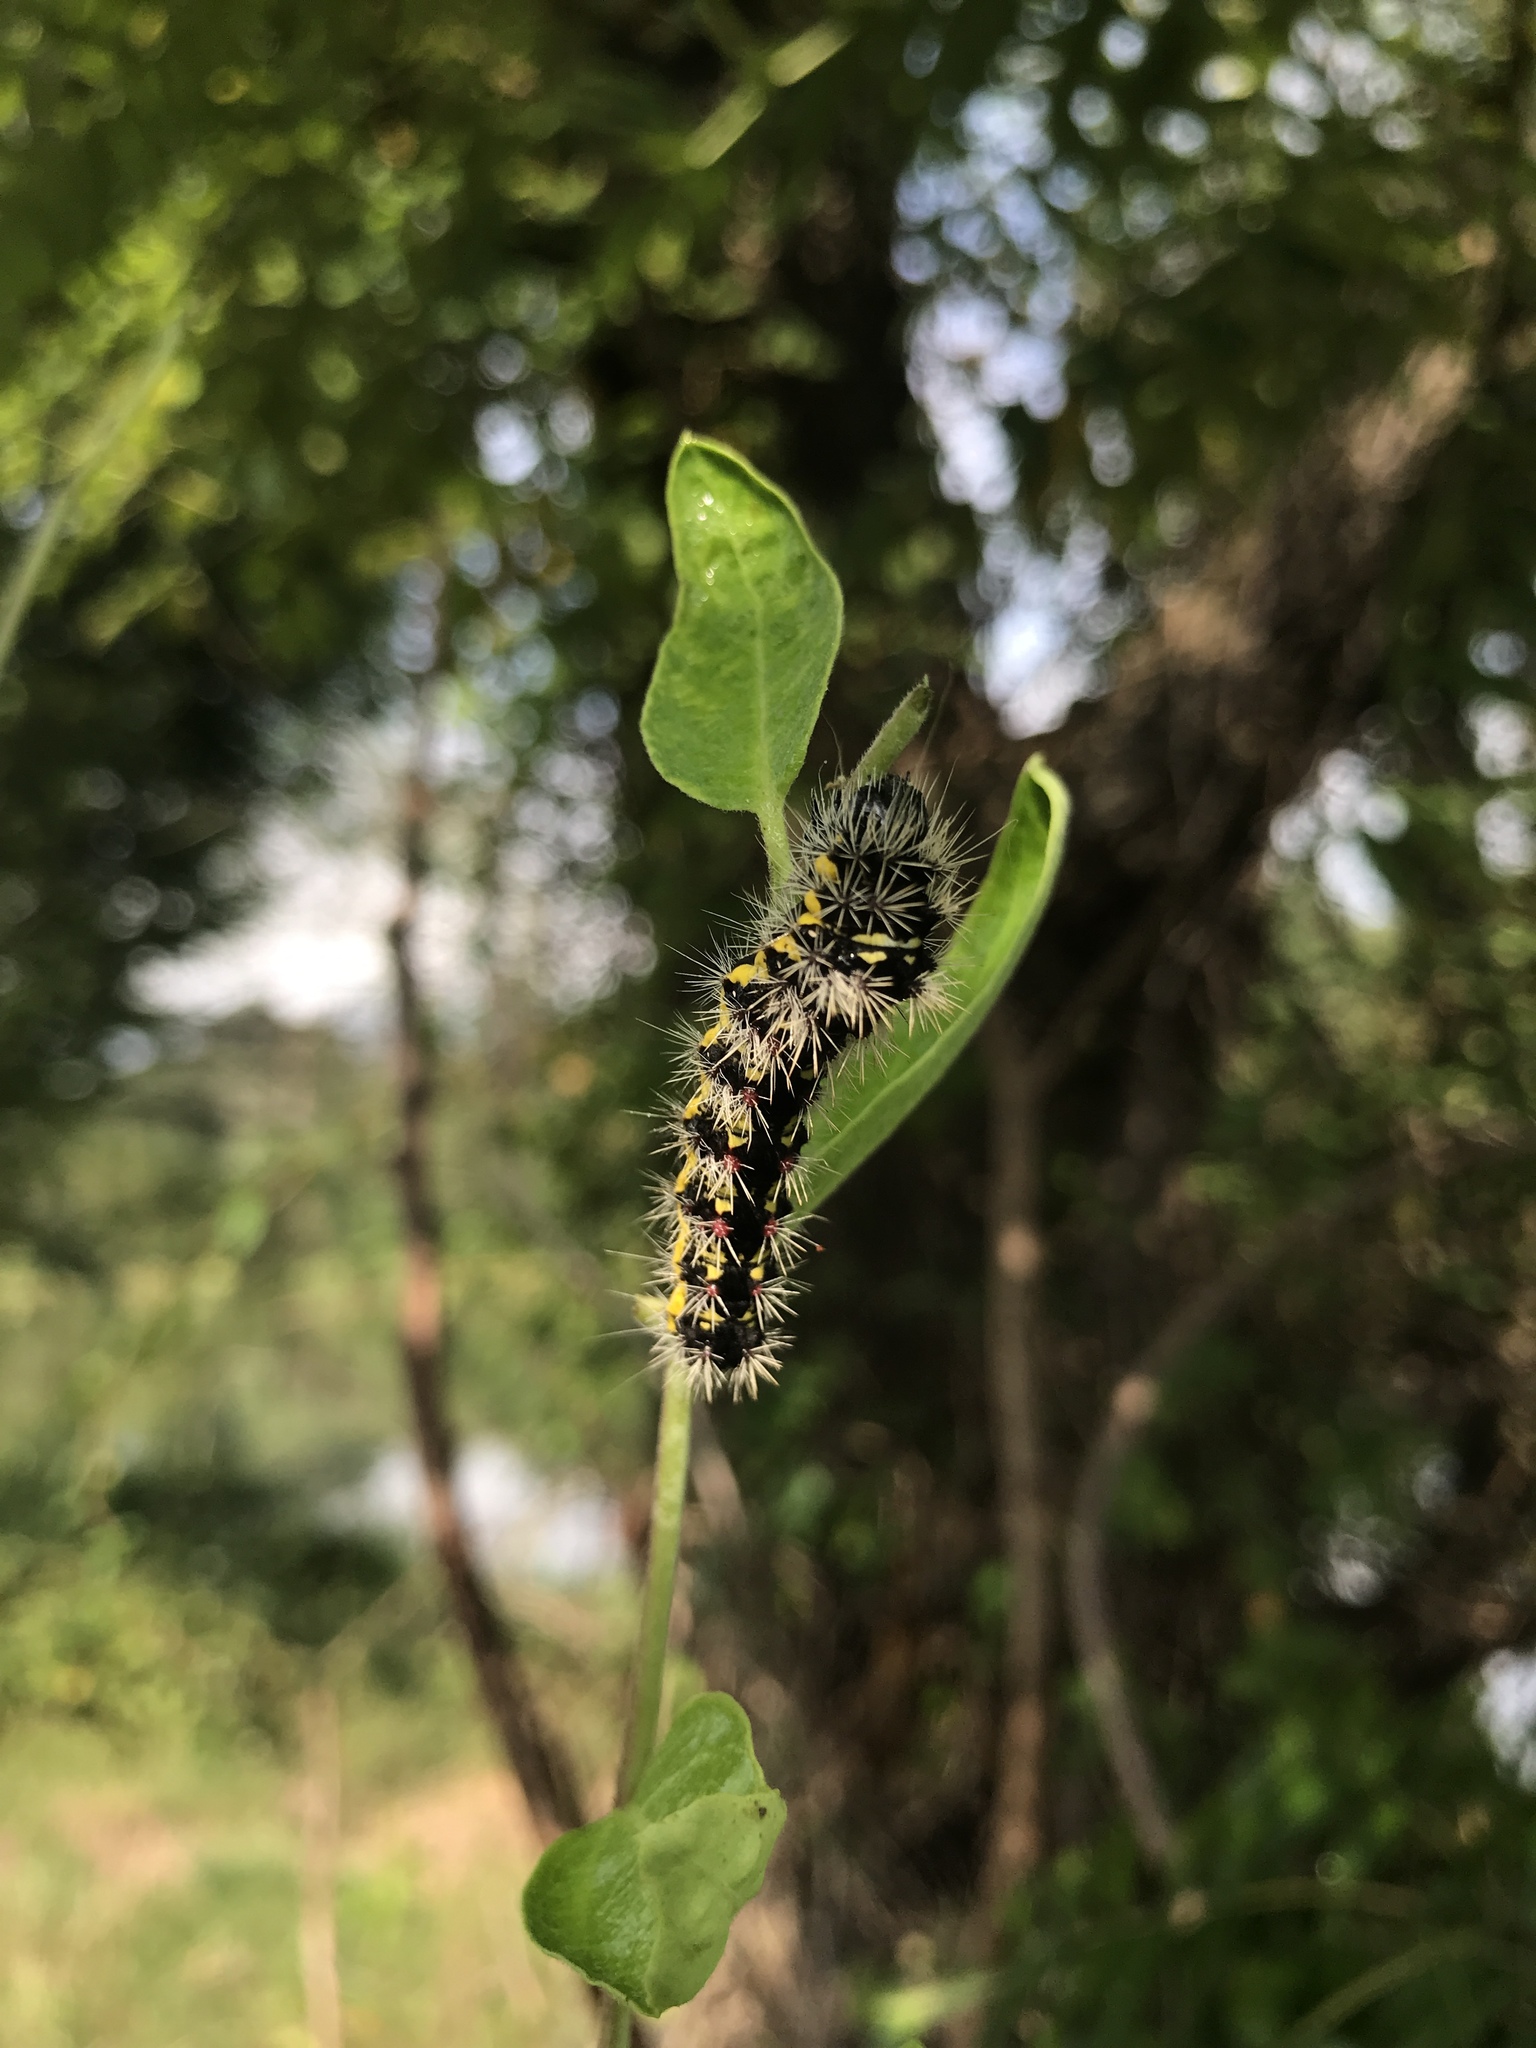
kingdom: Animalia
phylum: Arthropoda
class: Insecta
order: Lepidoptera
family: Noctuidae
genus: Acronicta
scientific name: Acronicta oblinita
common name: Smeared dagger
